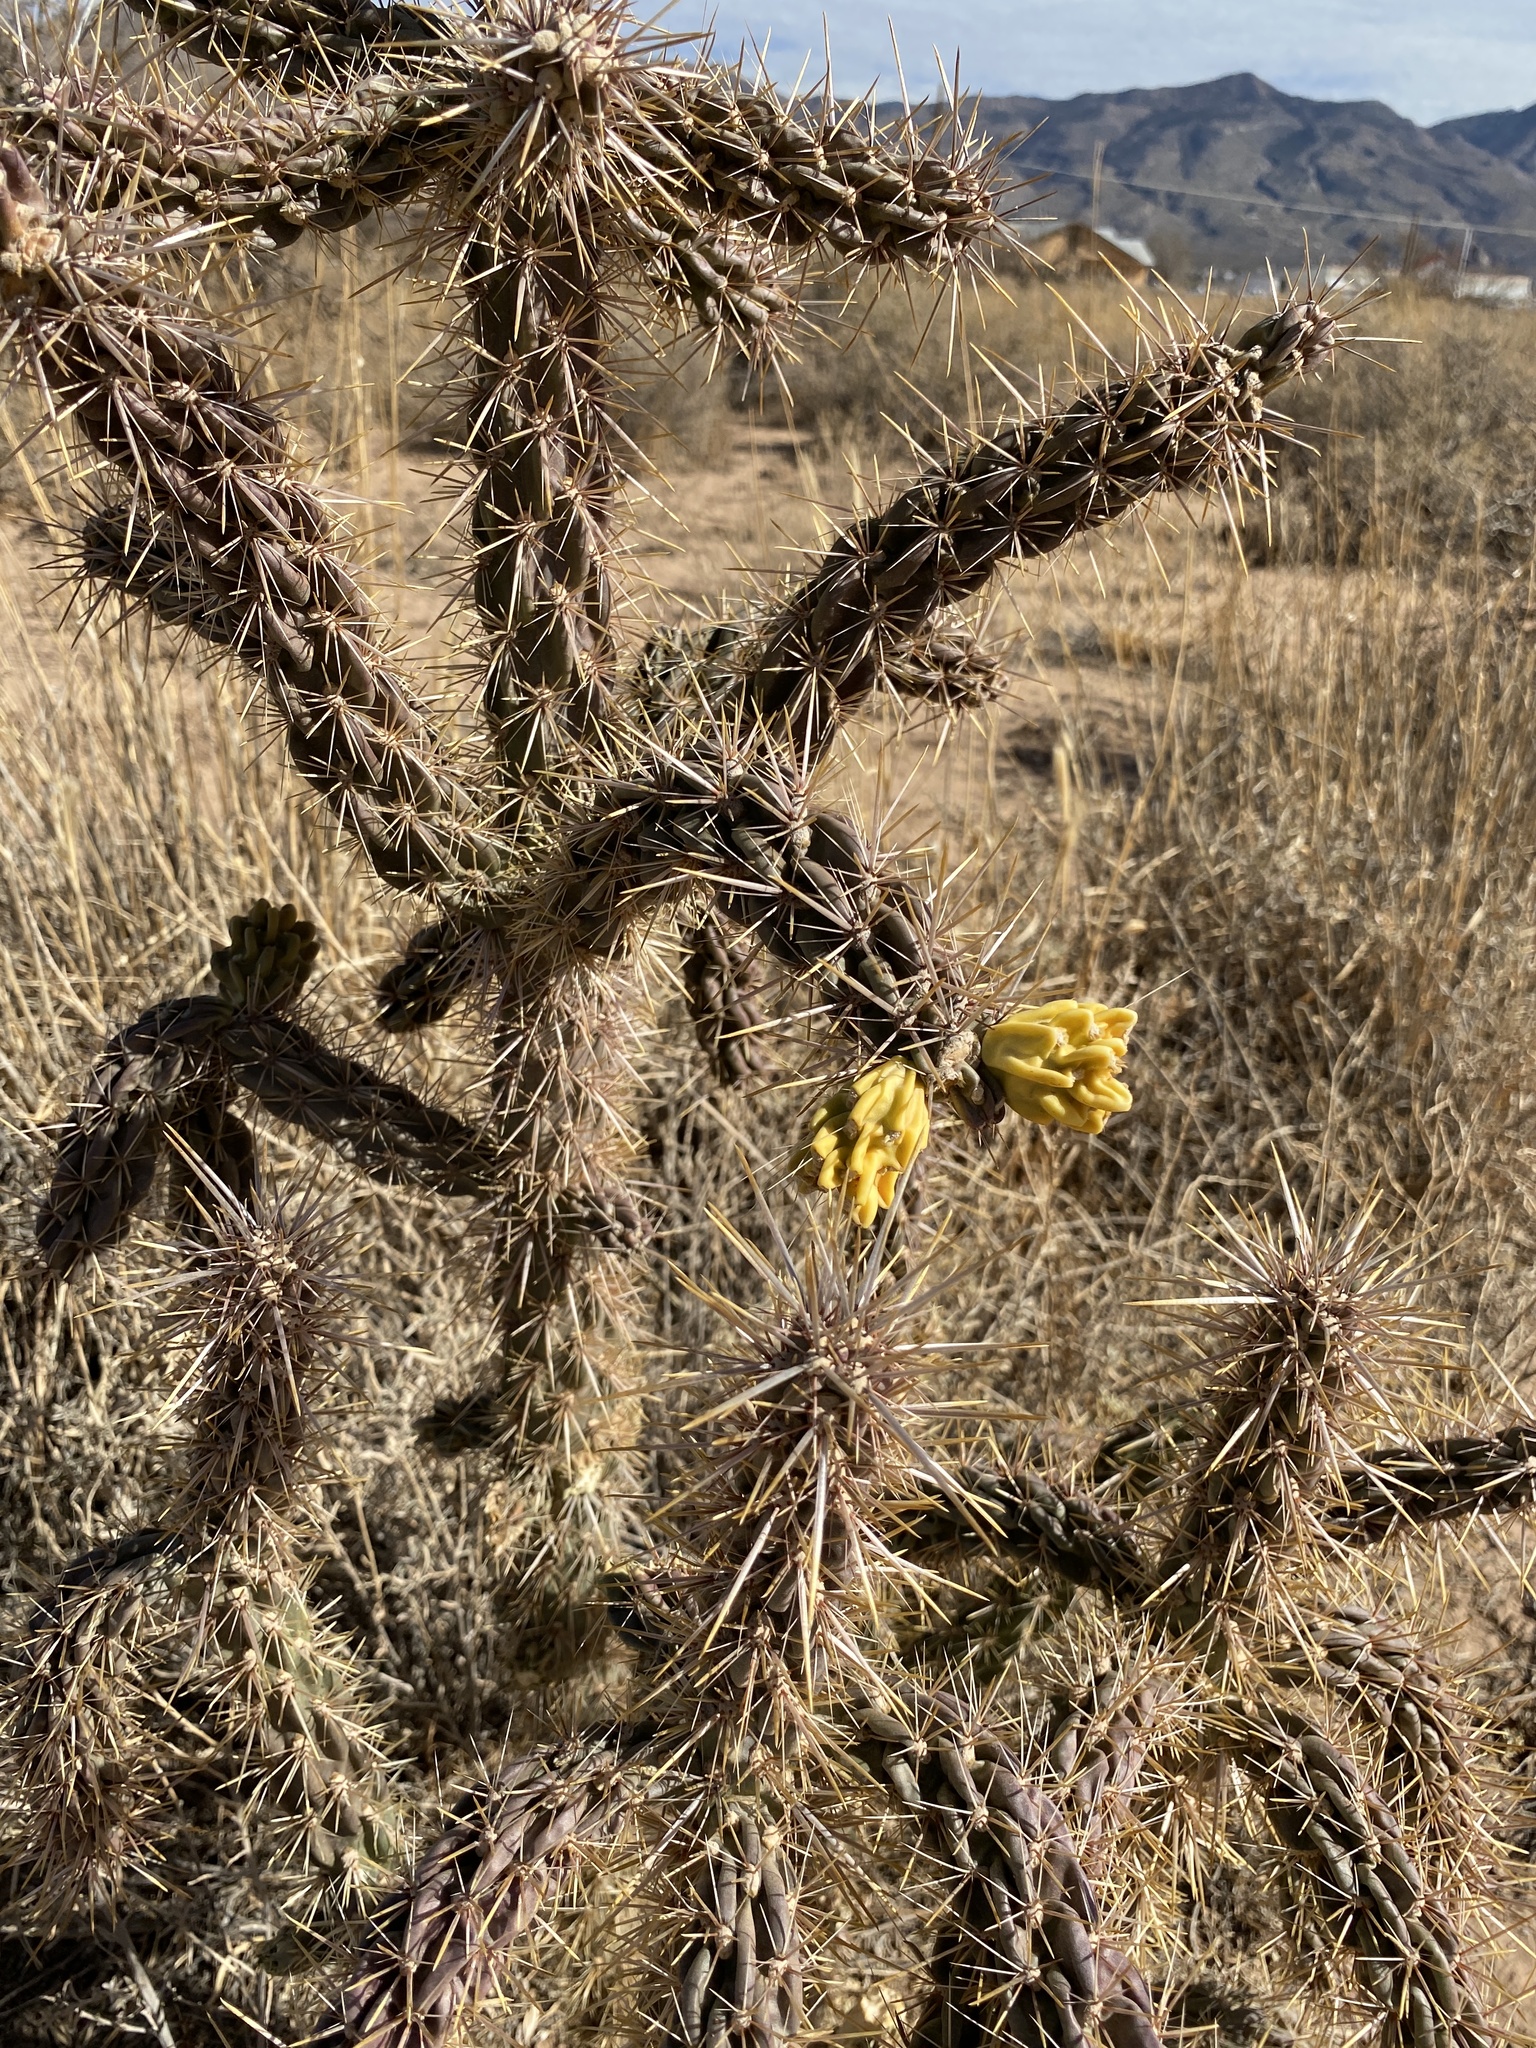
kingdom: Plantae
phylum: Tracheophyta
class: Magnoliopsida
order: Caryophyllales
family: Cactaceae
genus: Cylindropuntia
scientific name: Cylindropuntia imbricata
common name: Candelabrum cactus
